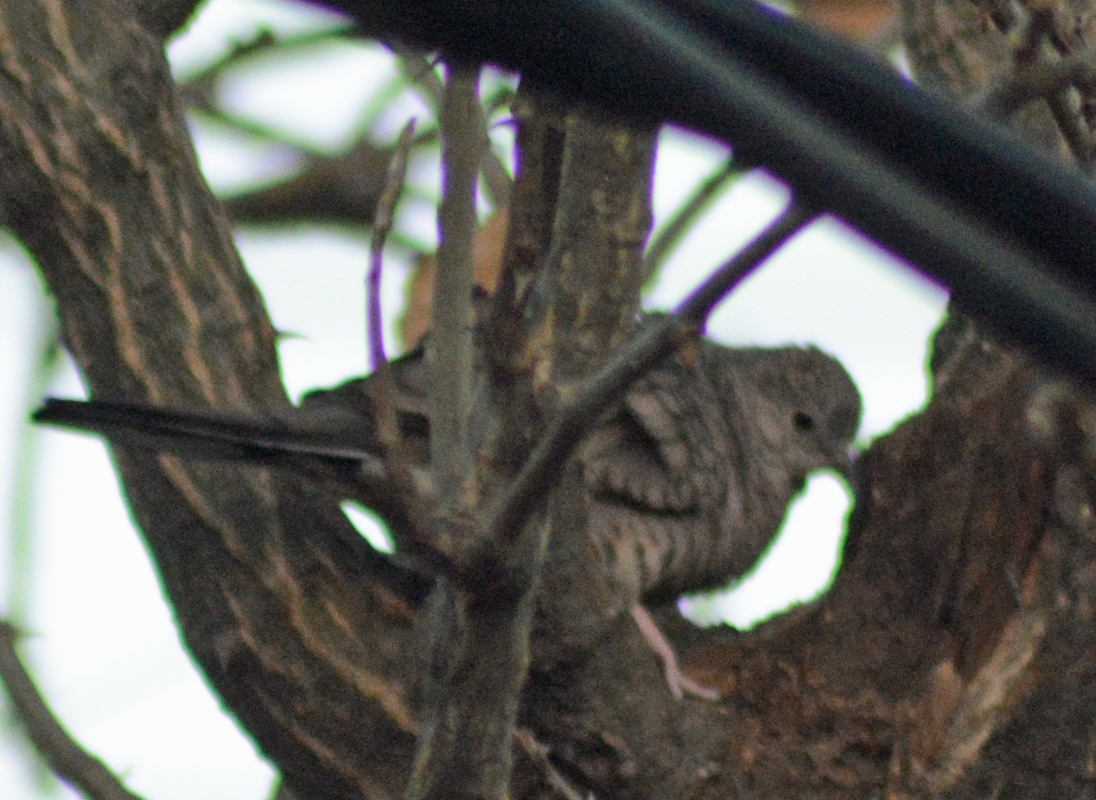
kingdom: Animalia
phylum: Chordata
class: Aves
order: Columbiformes
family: Columbidae
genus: Columbina
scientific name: Columbina inca
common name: Inca dove
